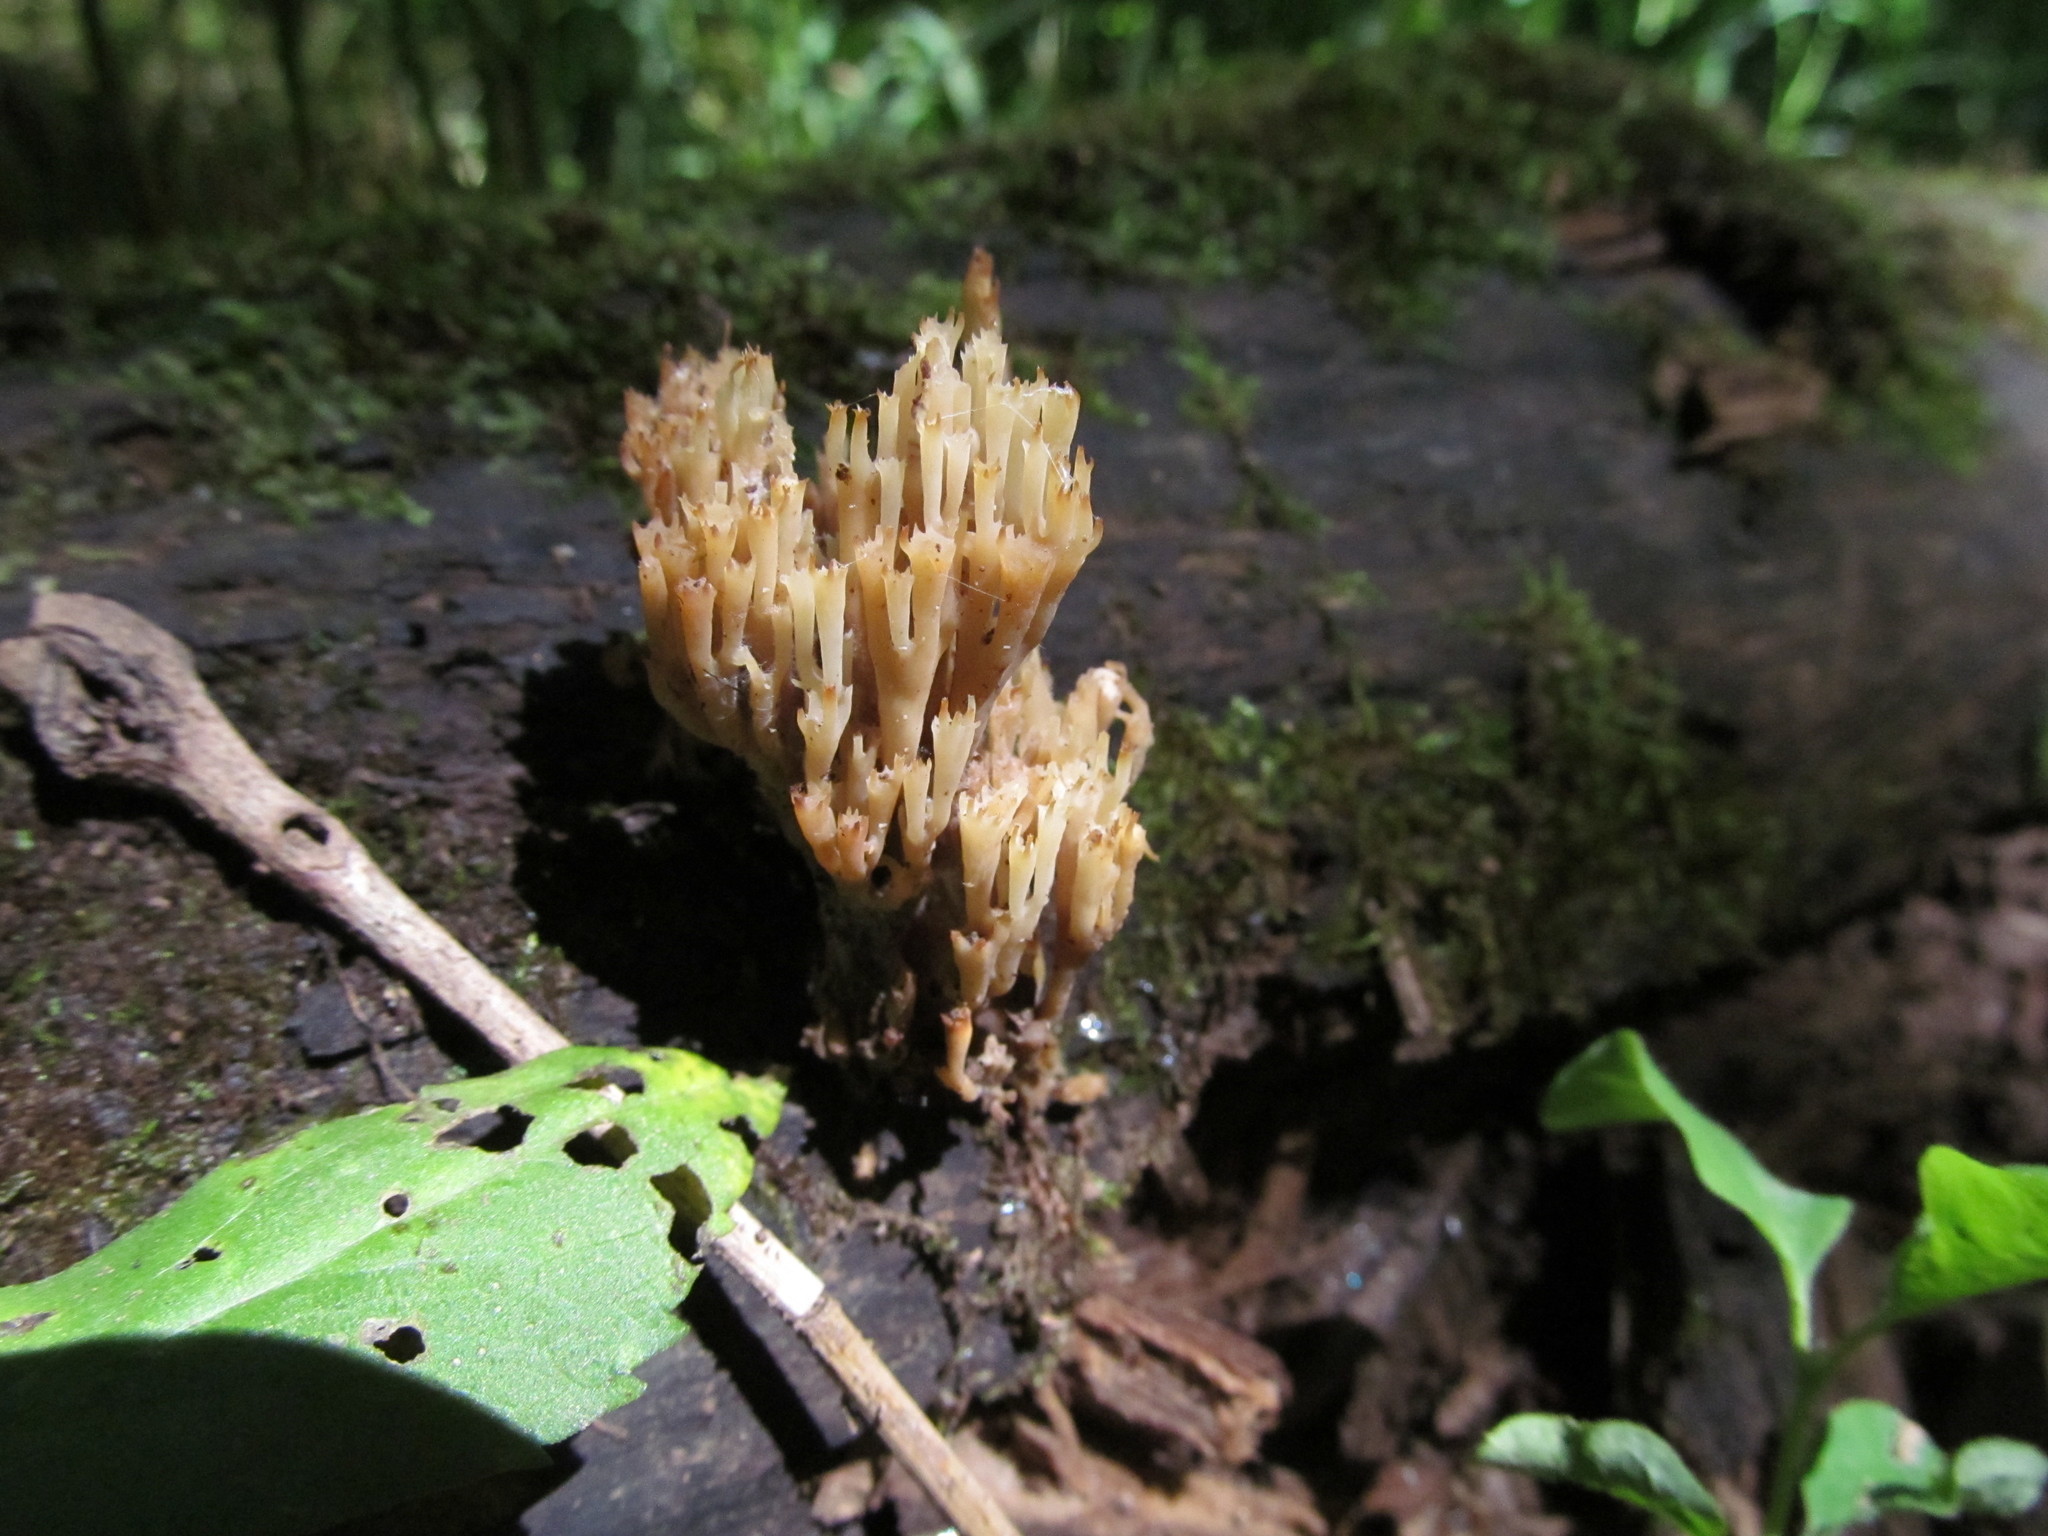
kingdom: Fungi
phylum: Basidiomycota
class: Agaricomycetes
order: Russulales
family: Auriscalpiaceae
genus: Artomyces
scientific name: Artomyces pyxidatus
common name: Crown-tipped coral fungus
